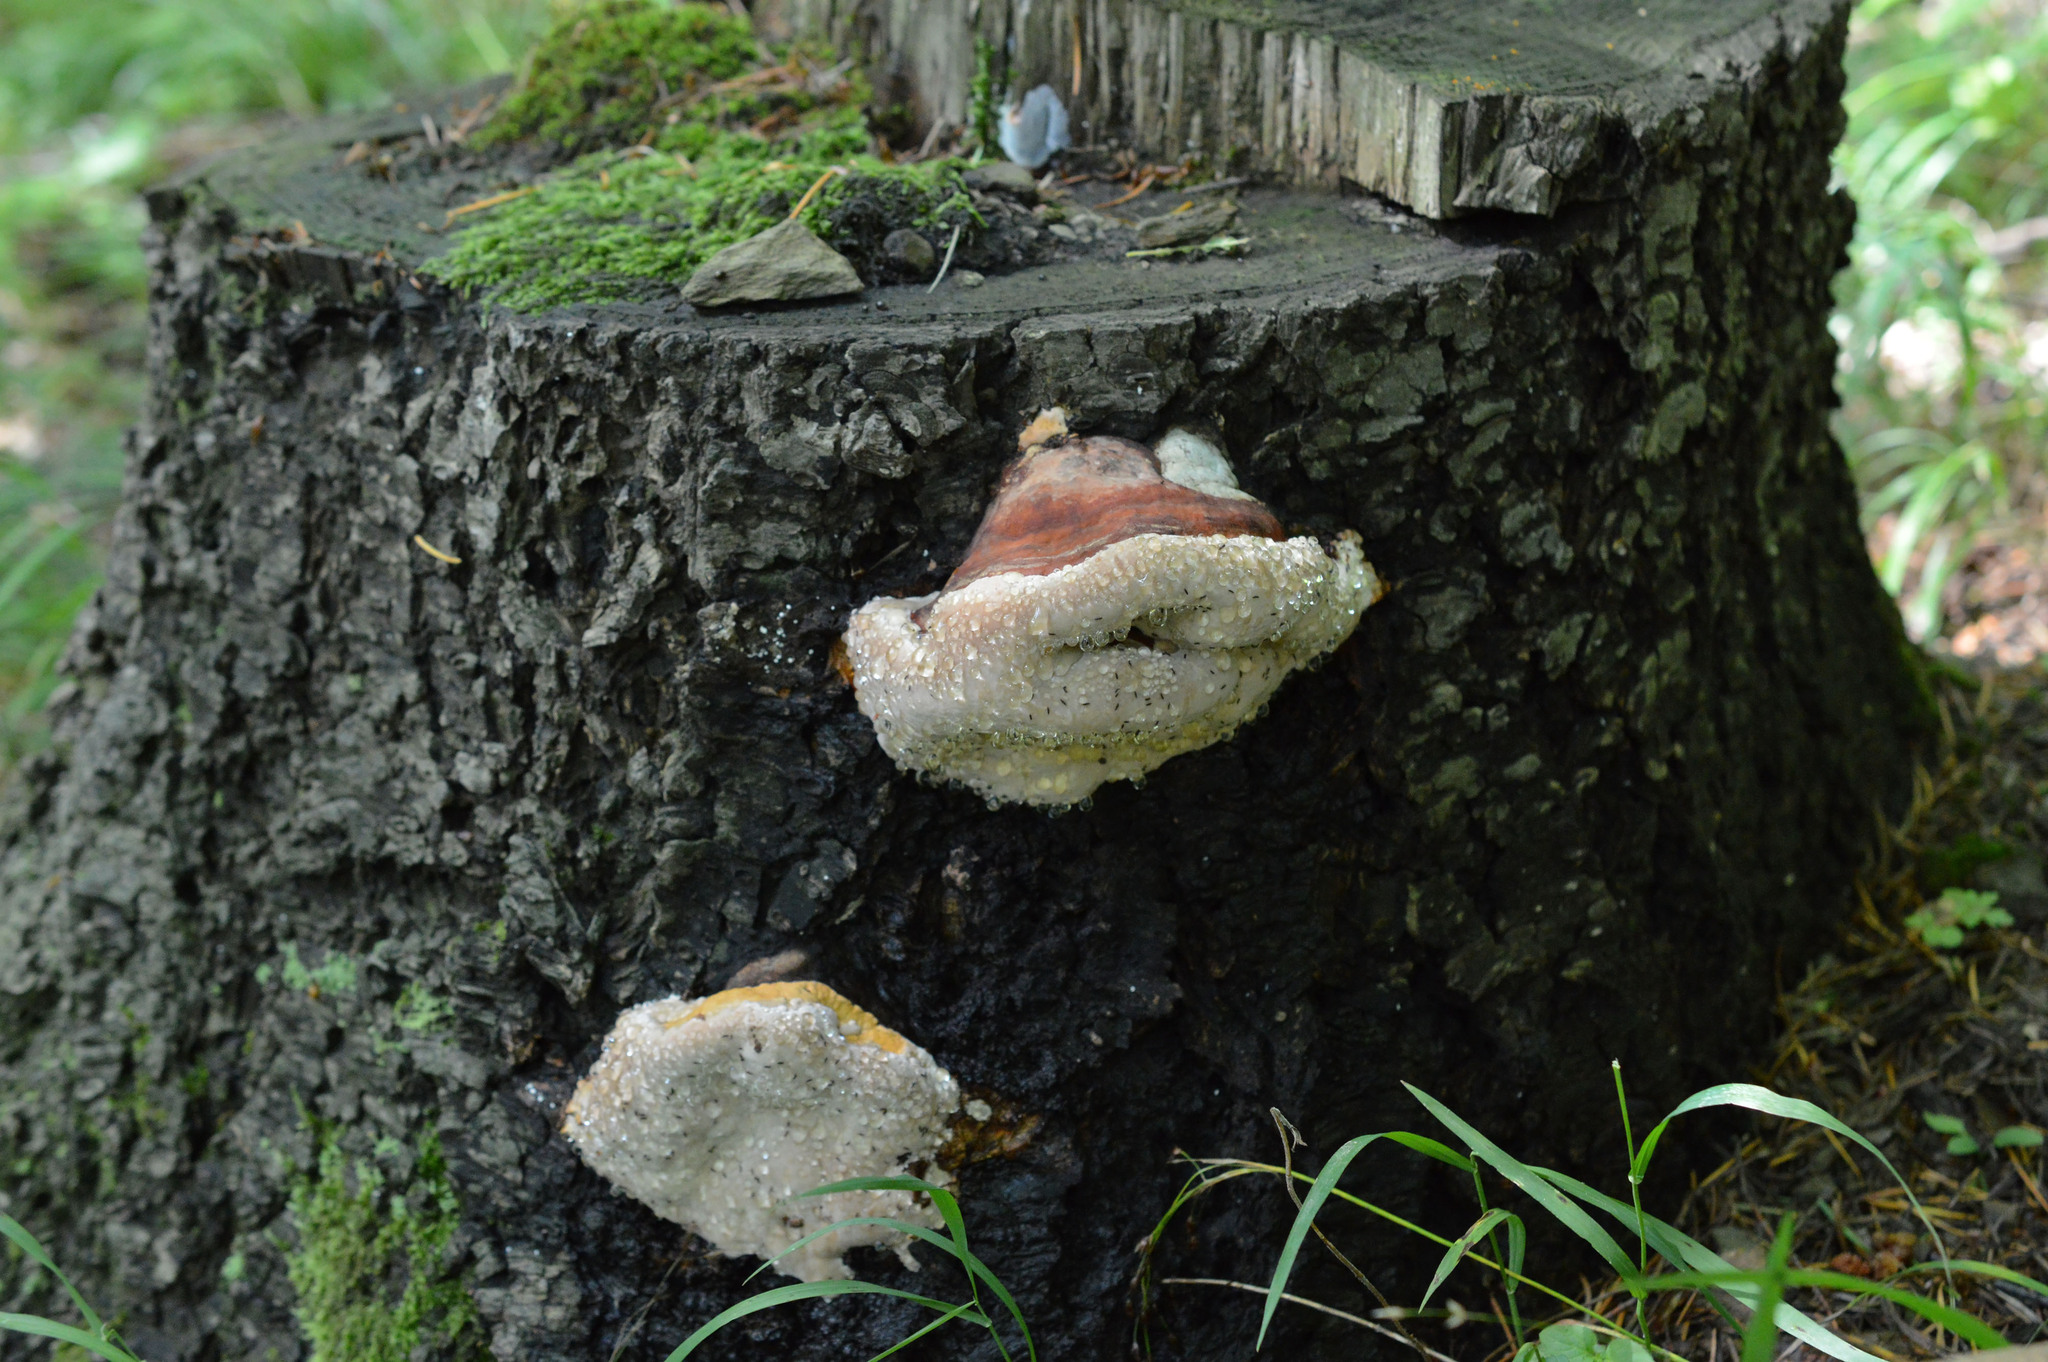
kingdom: Fungi
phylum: Basidiomycota
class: Agaricomycetes
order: Polyporales
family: Fomitopsidaceae
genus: Fomitopsis
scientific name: Fomitopsis pinicola
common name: Red-belted bracket
